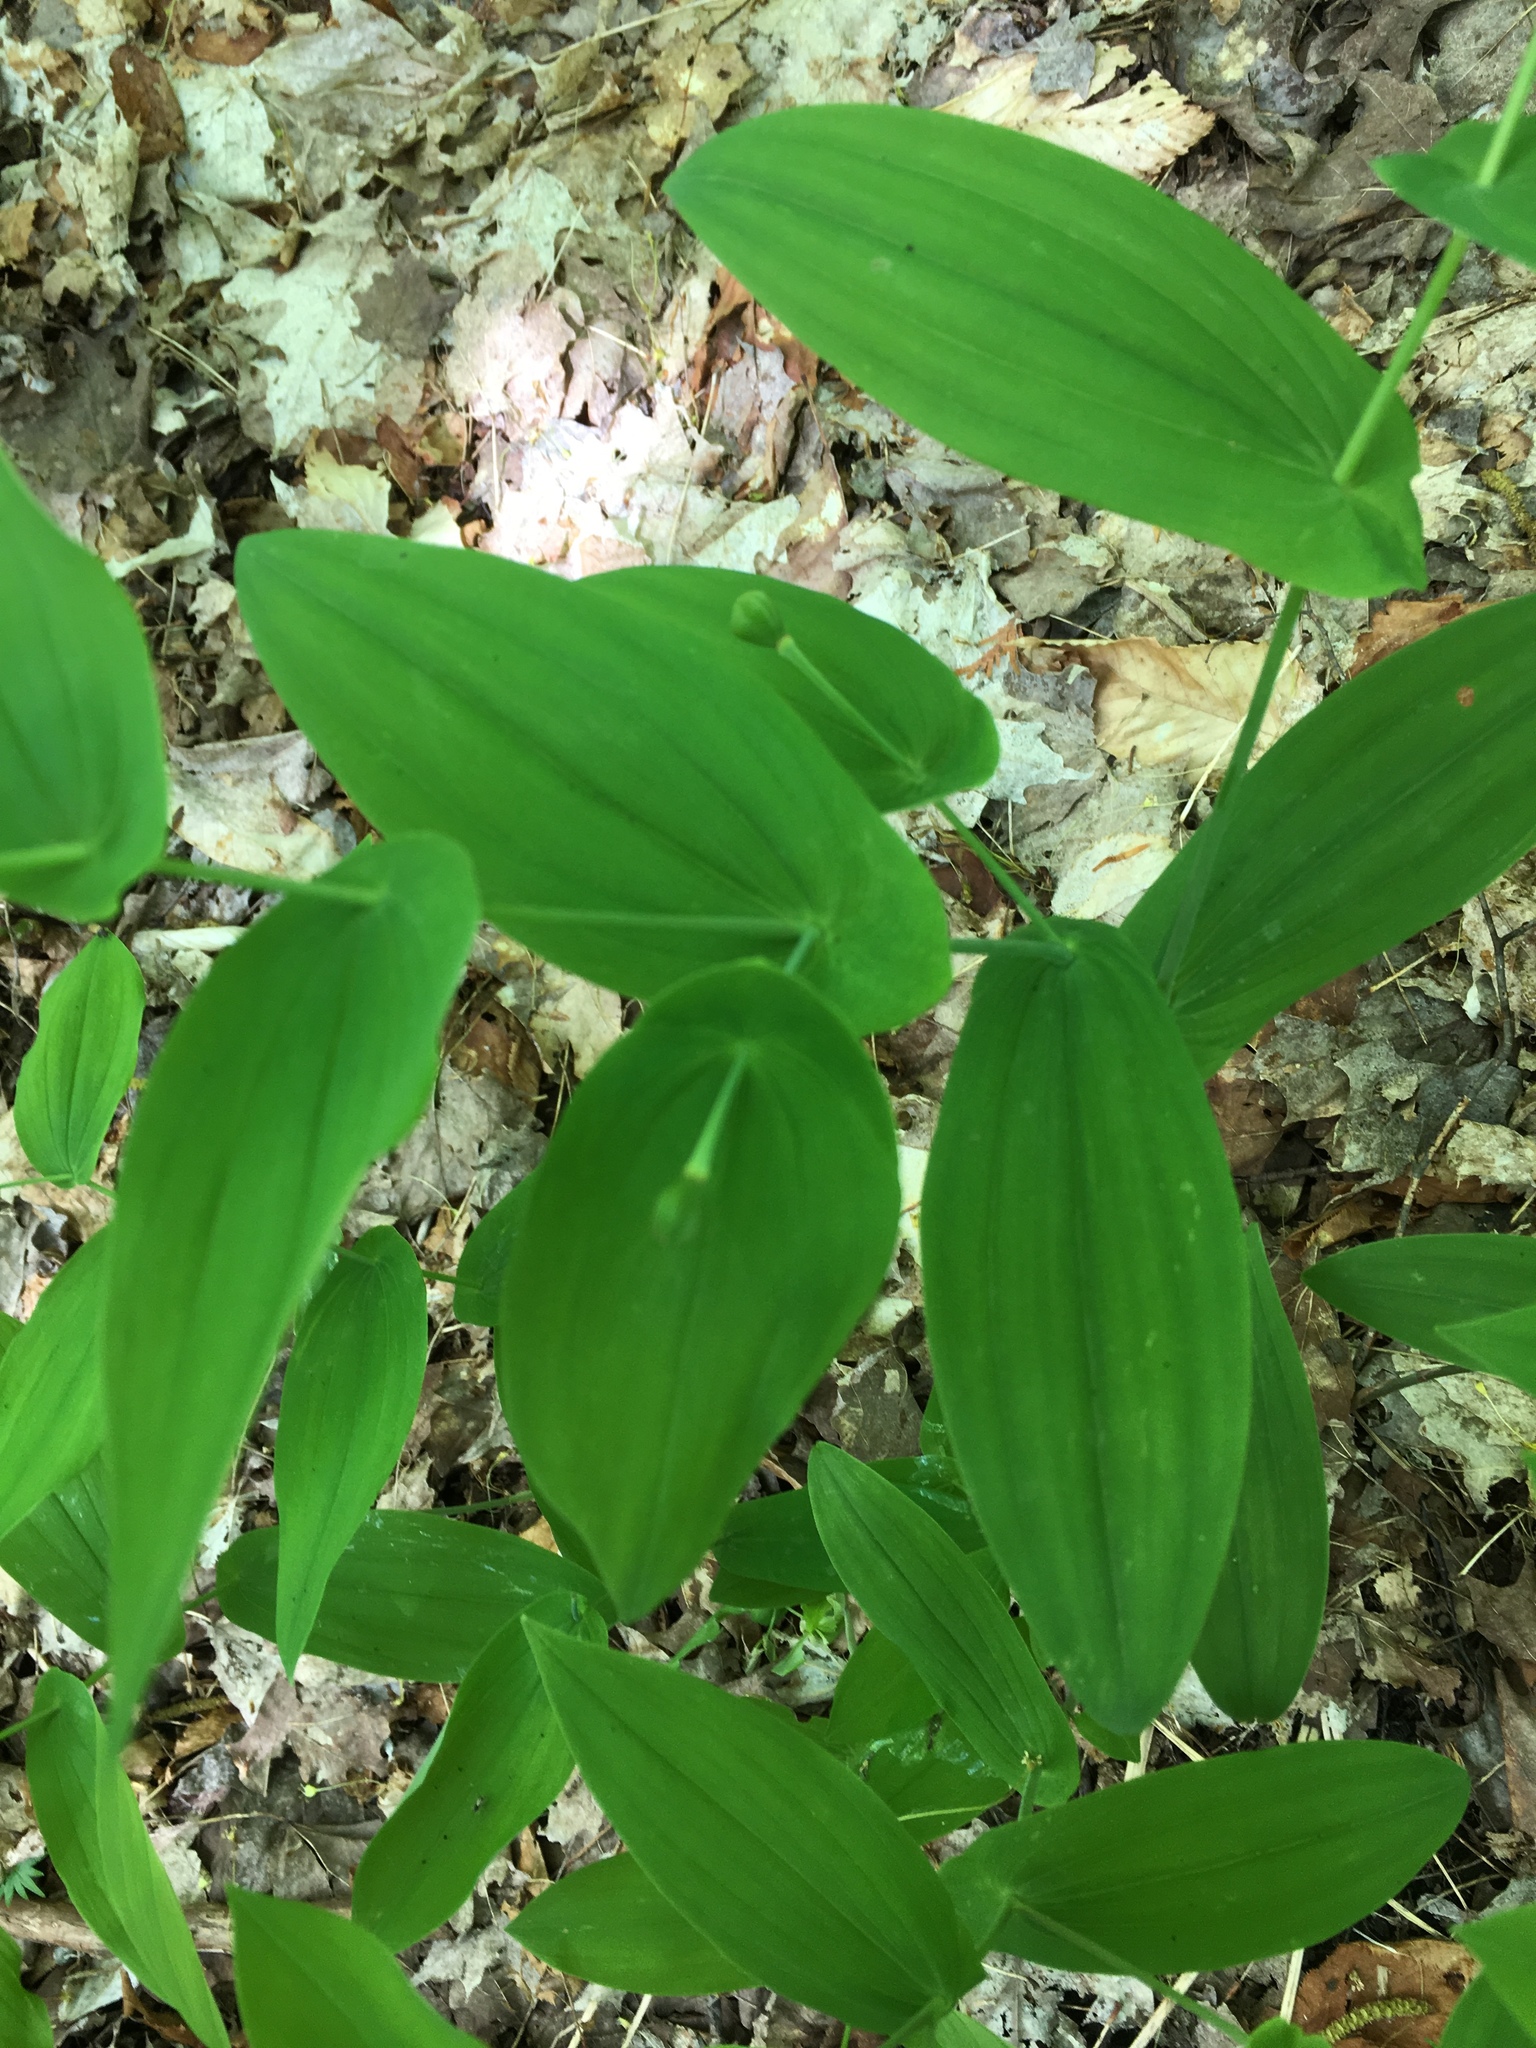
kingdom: Plantae
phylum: Tracheophyta
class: Liliopsida
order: Liliales
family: Colchicaceae
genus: Uvularia
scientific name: Uvularia grandiflora
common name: Bellwort
